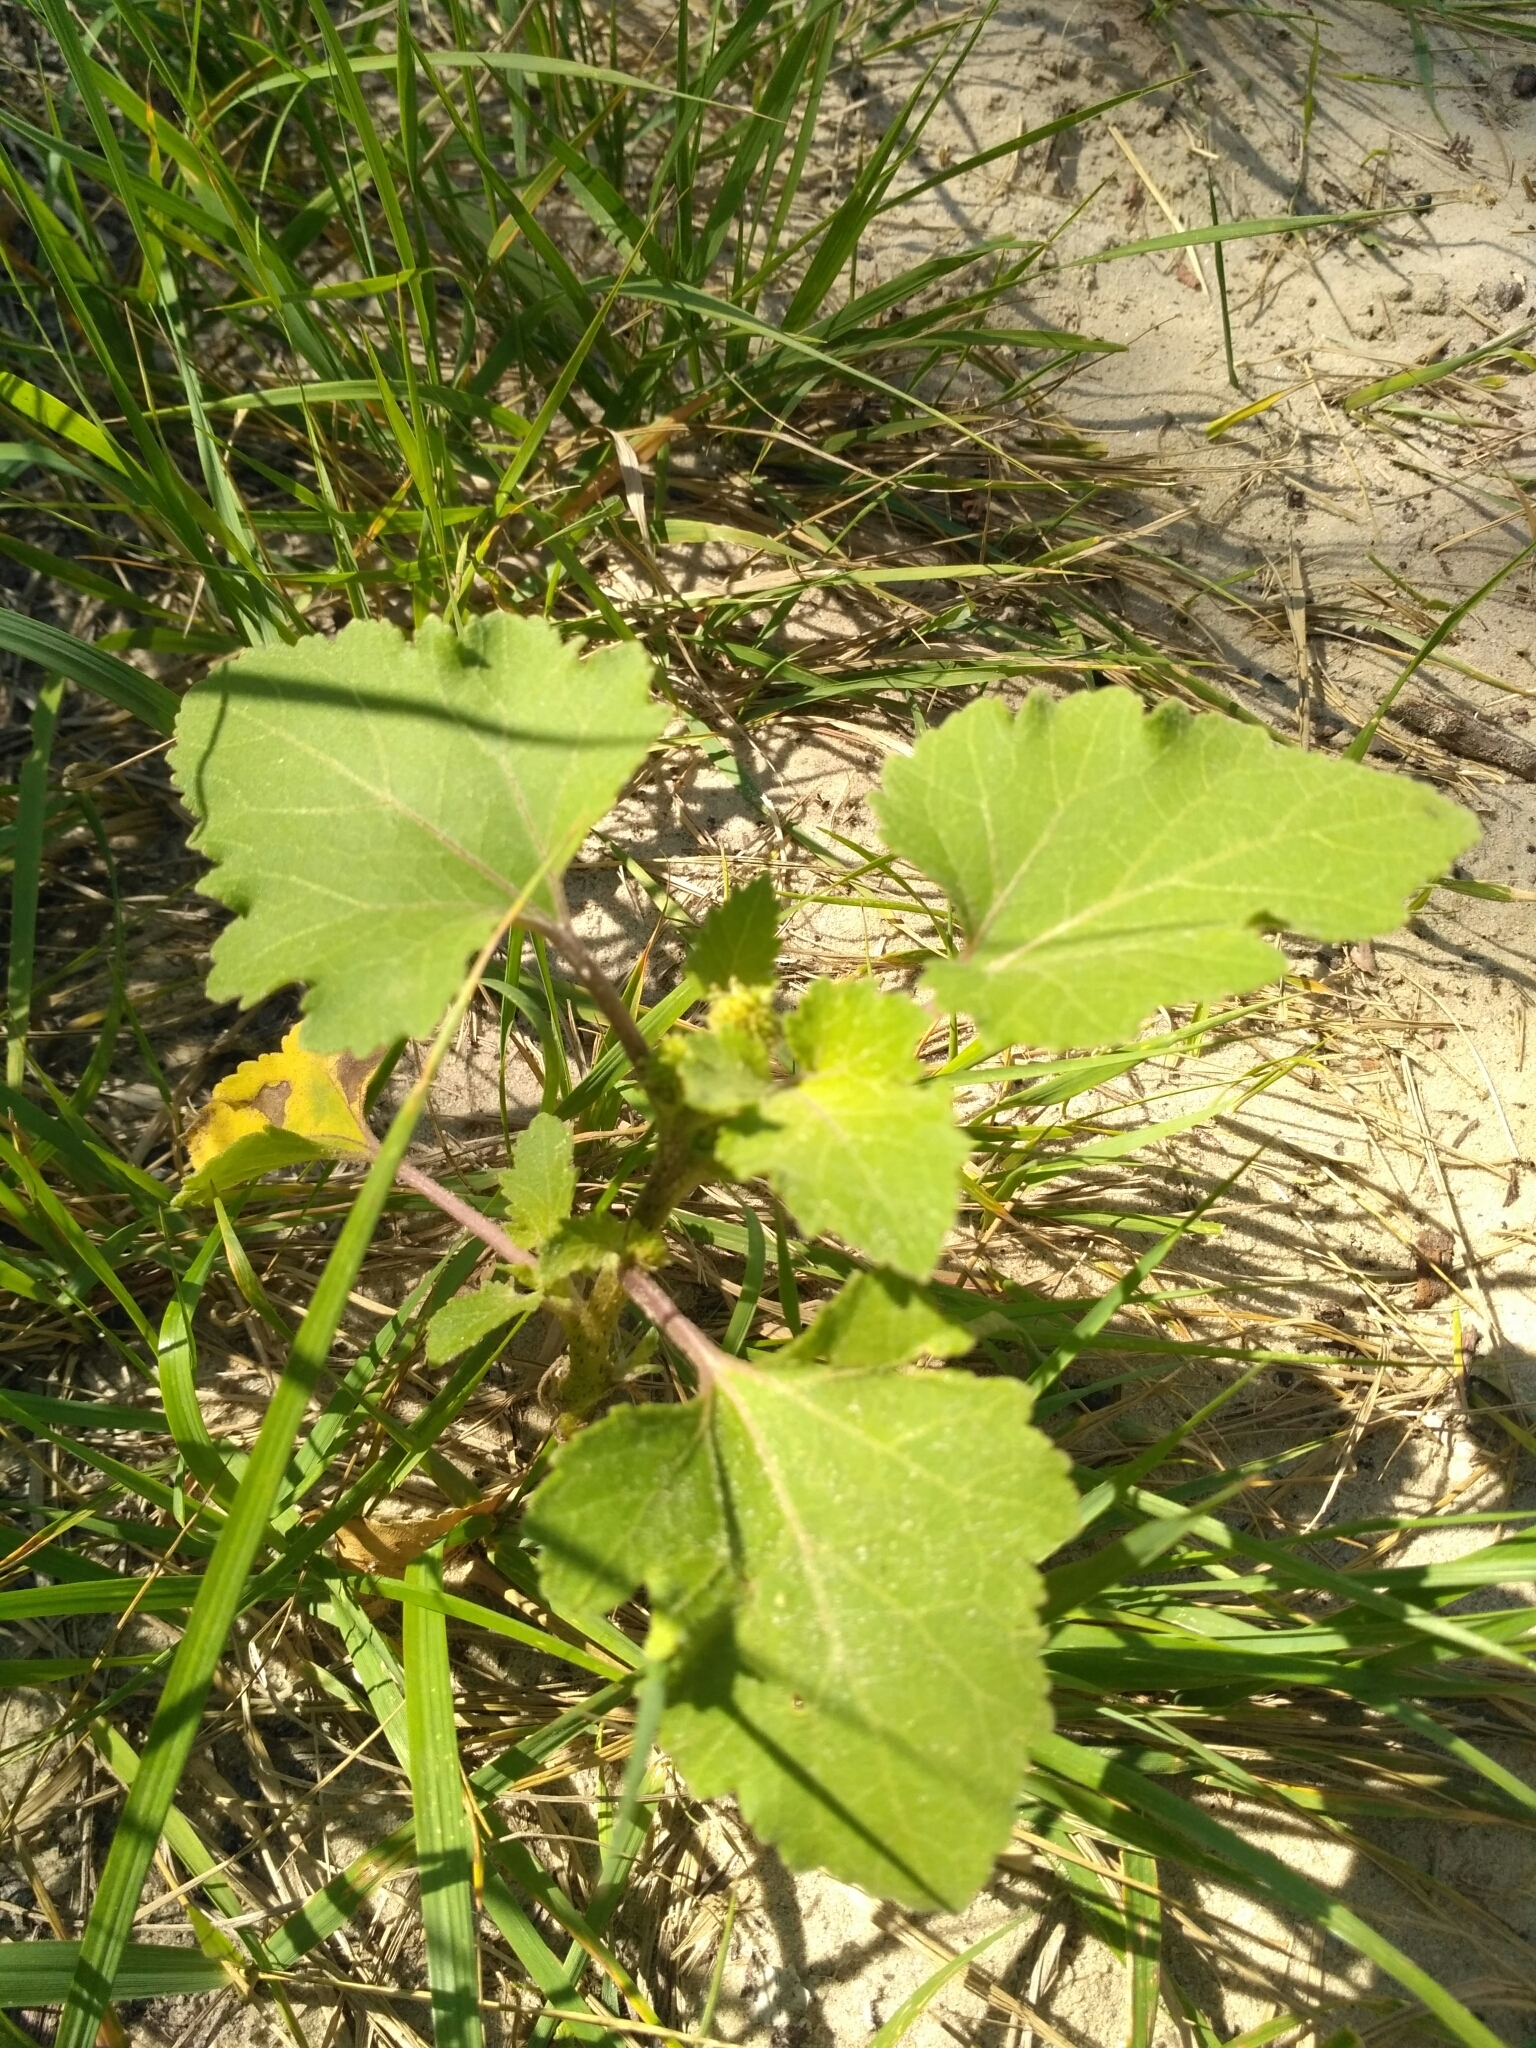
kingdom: Plantae
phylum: Tracheophyta
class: Magnoliopsida
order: Asterales
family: Asteraceae
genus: Xanthium
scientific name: Xanthium orientale
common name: Californian burr
